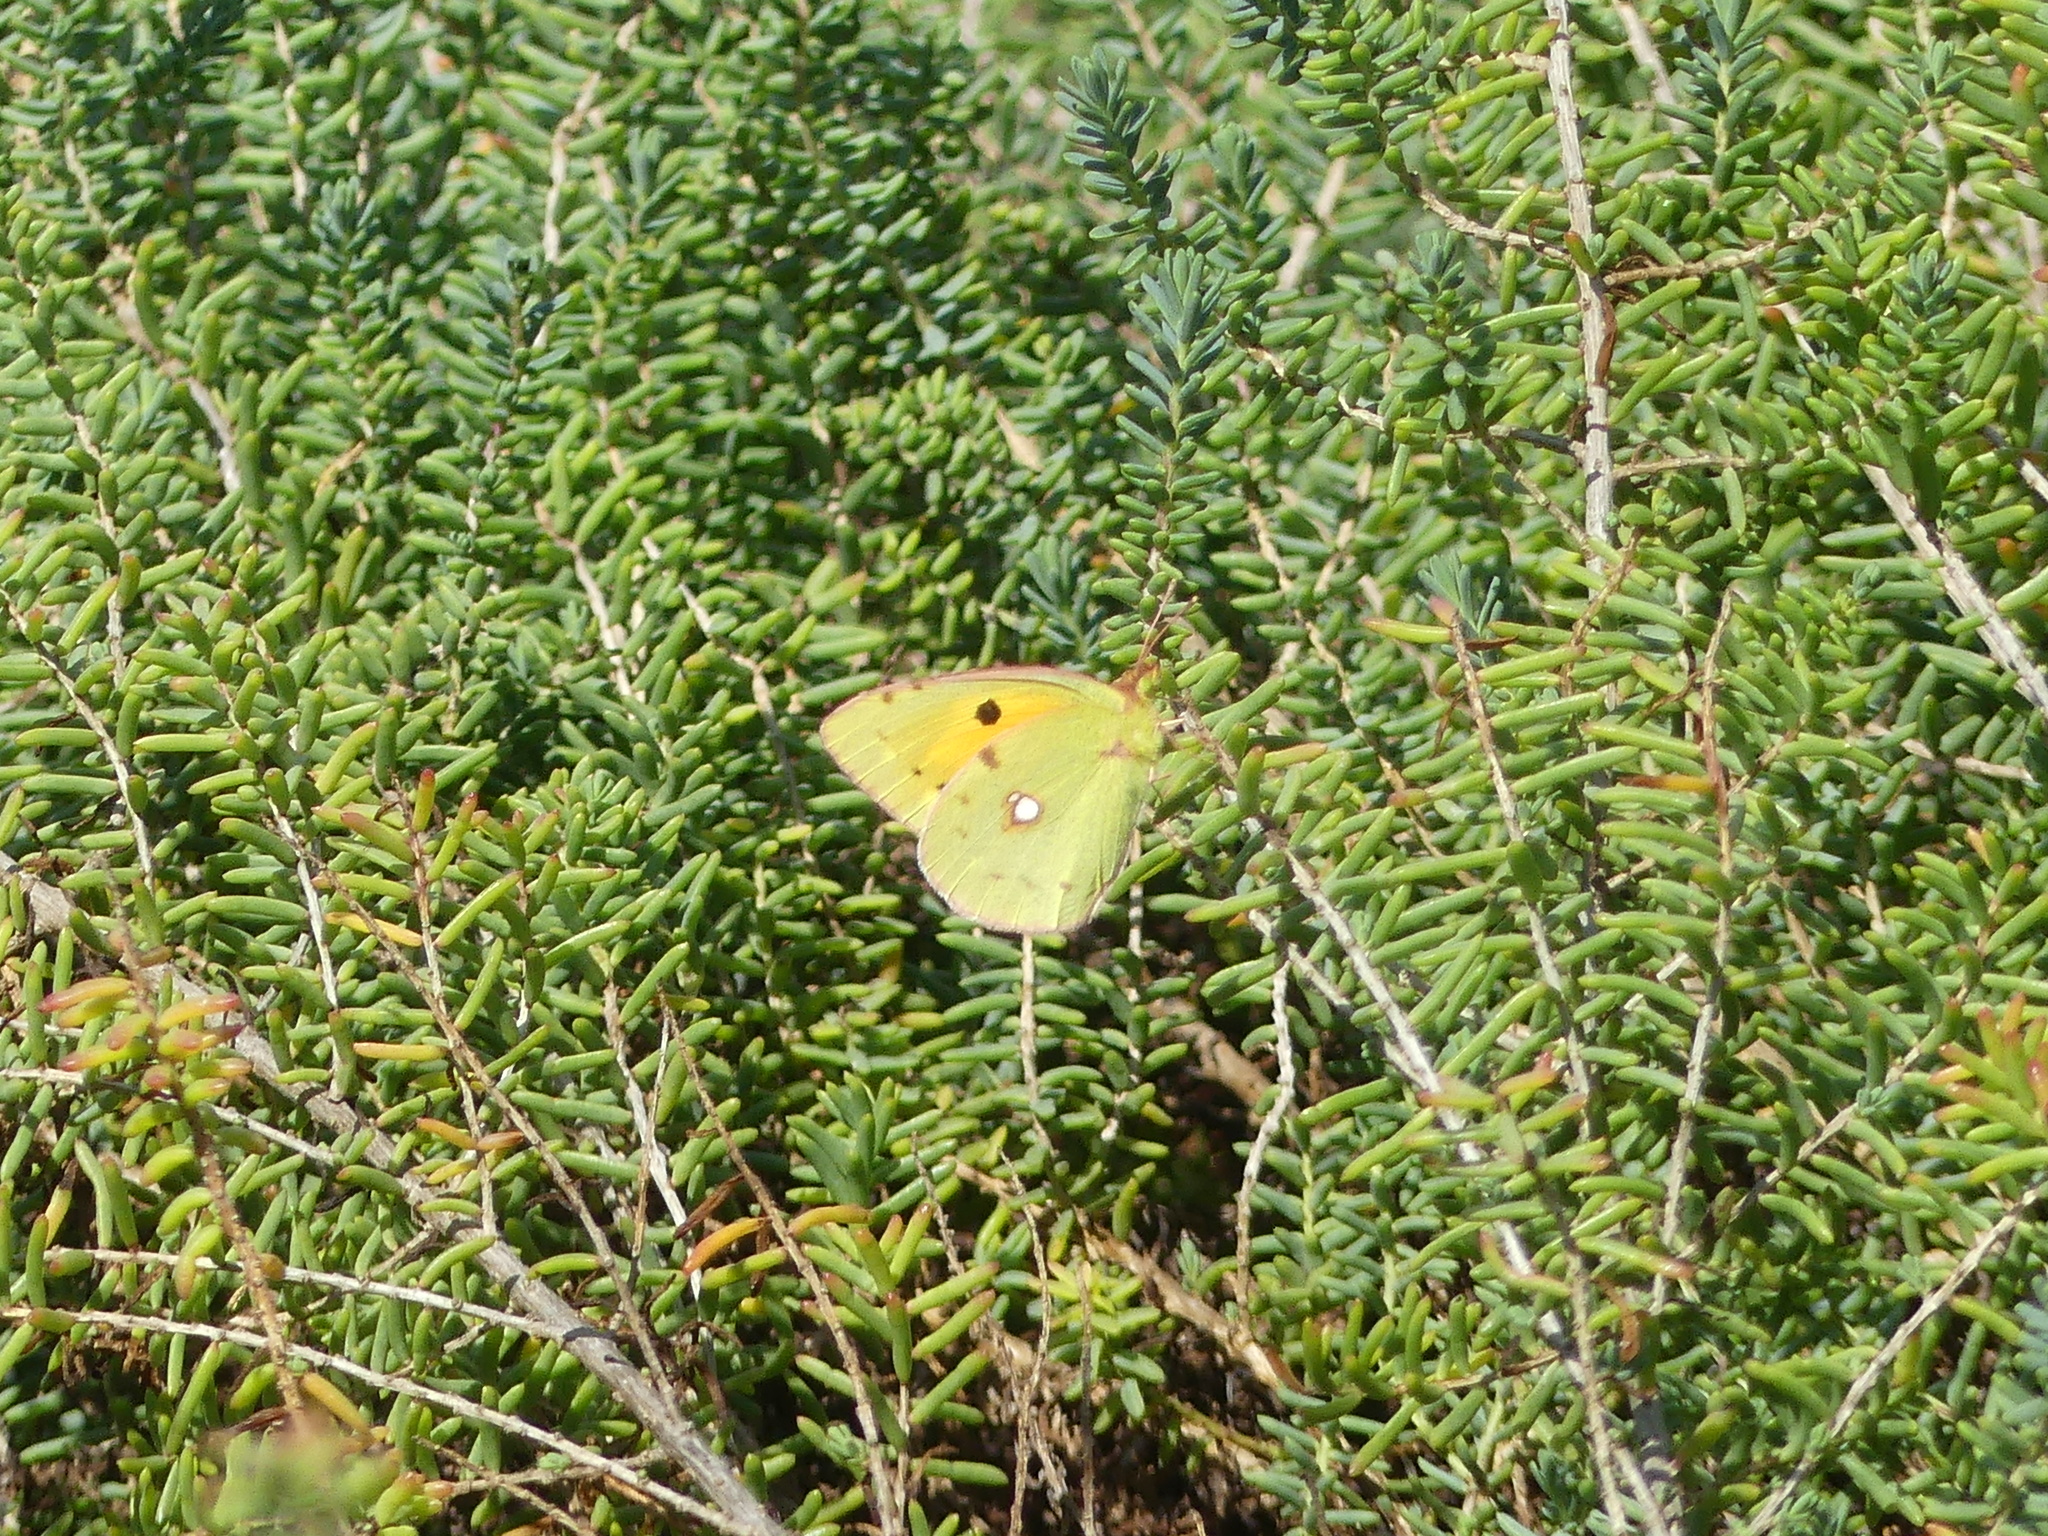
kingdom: Animalia
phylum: Arthropoda
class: Insecta
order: Lepidoptera
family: Pieridae
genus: Colias
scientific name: Colias croceus
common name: Clouded yellow
